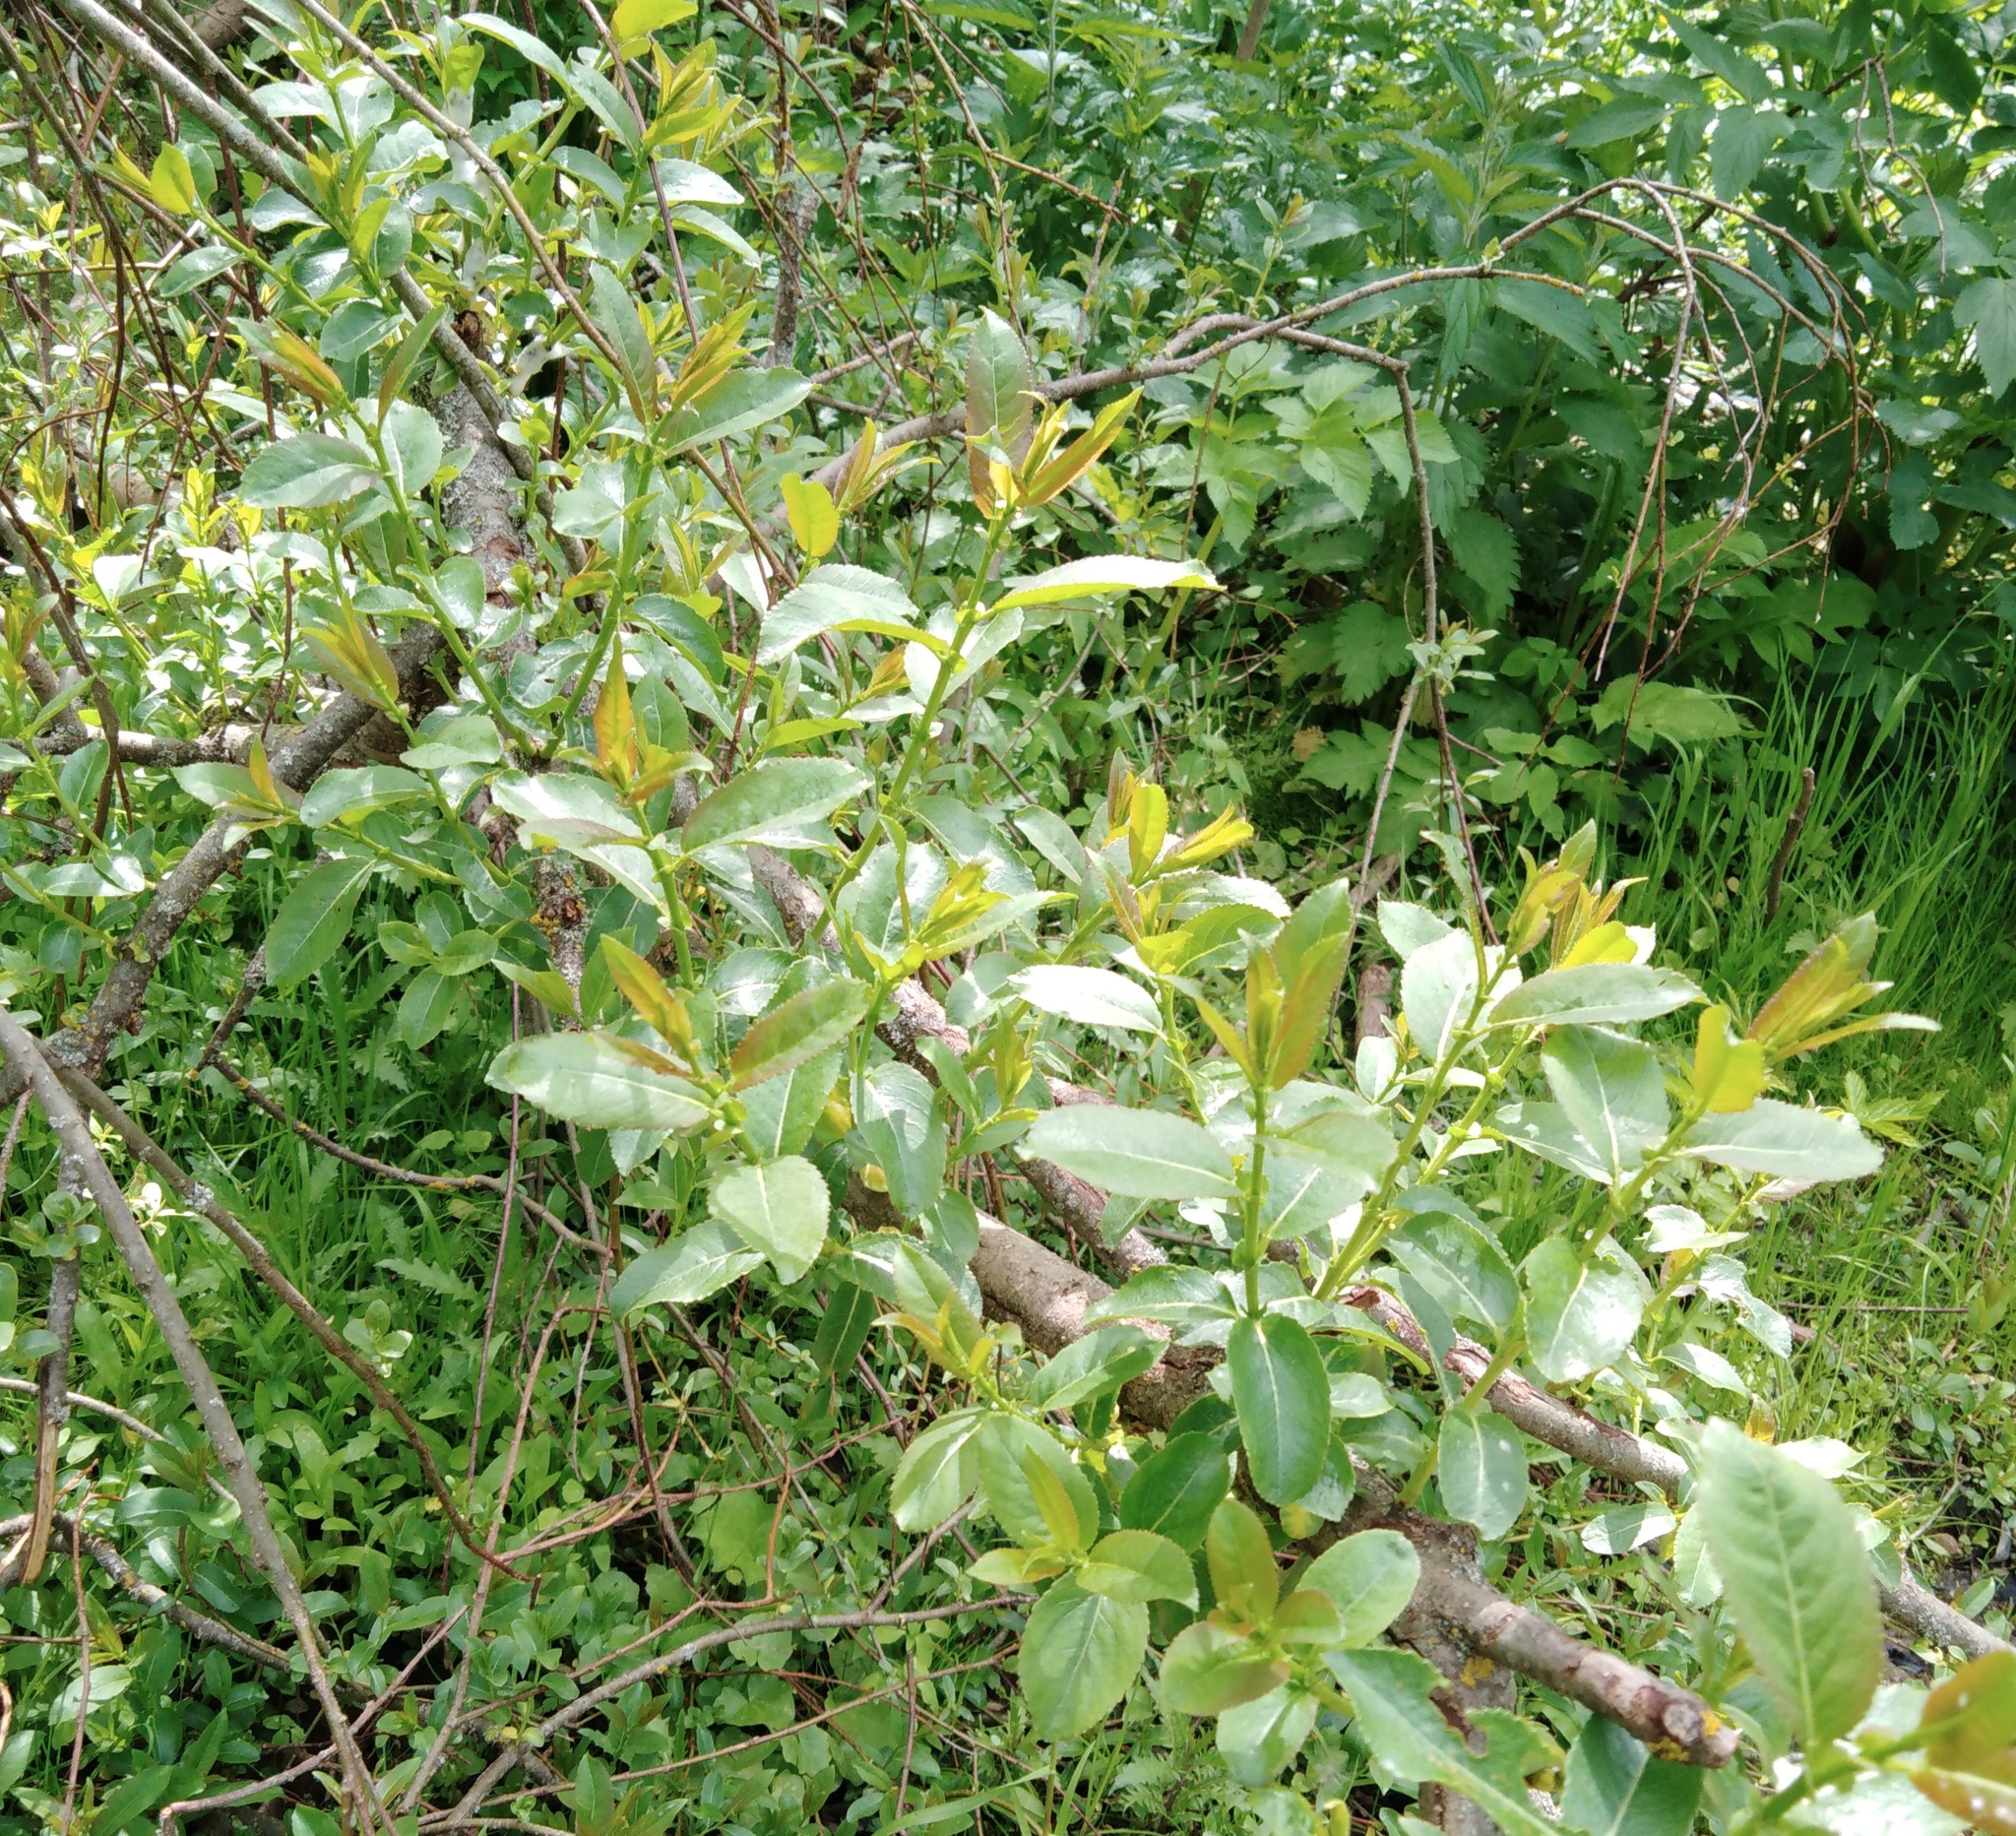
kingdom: Plantae
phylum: Tracheophyta
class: Magnoliopsida
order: Malpighiales
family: Salicaceae
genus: Salix
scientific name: Salix triandra
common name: Almond willow
